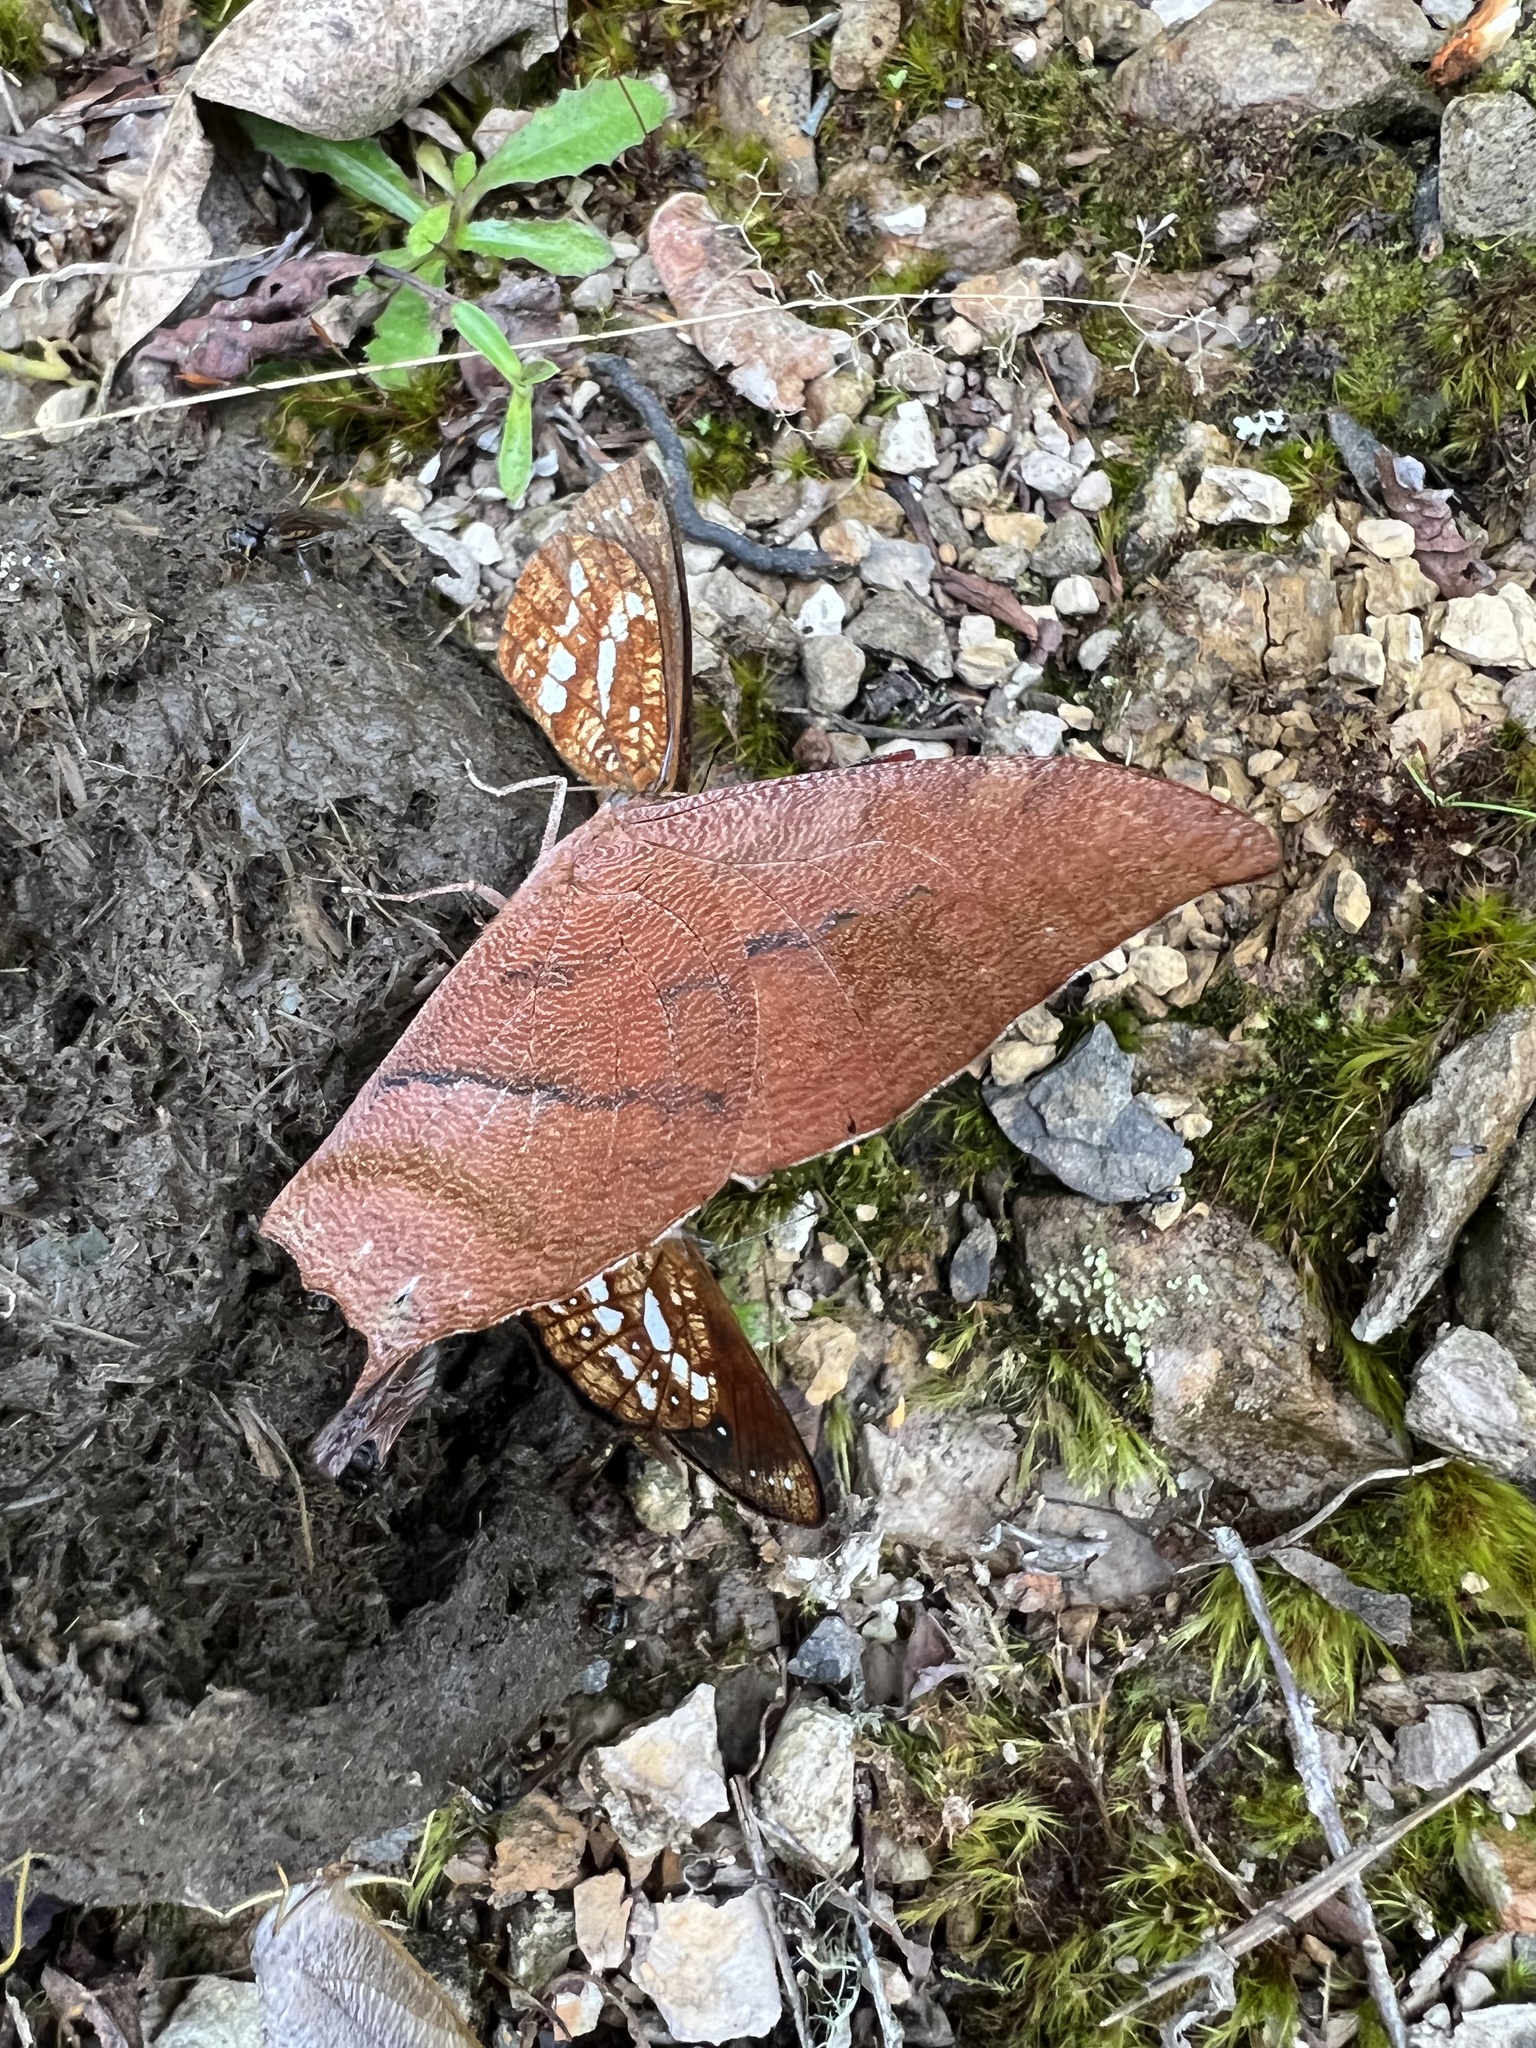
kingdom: Animalia
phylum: Arthropoda
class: Insecta
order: Lepidoptera
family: Nymphalidae
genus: Fountainea
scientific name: Fountainea
